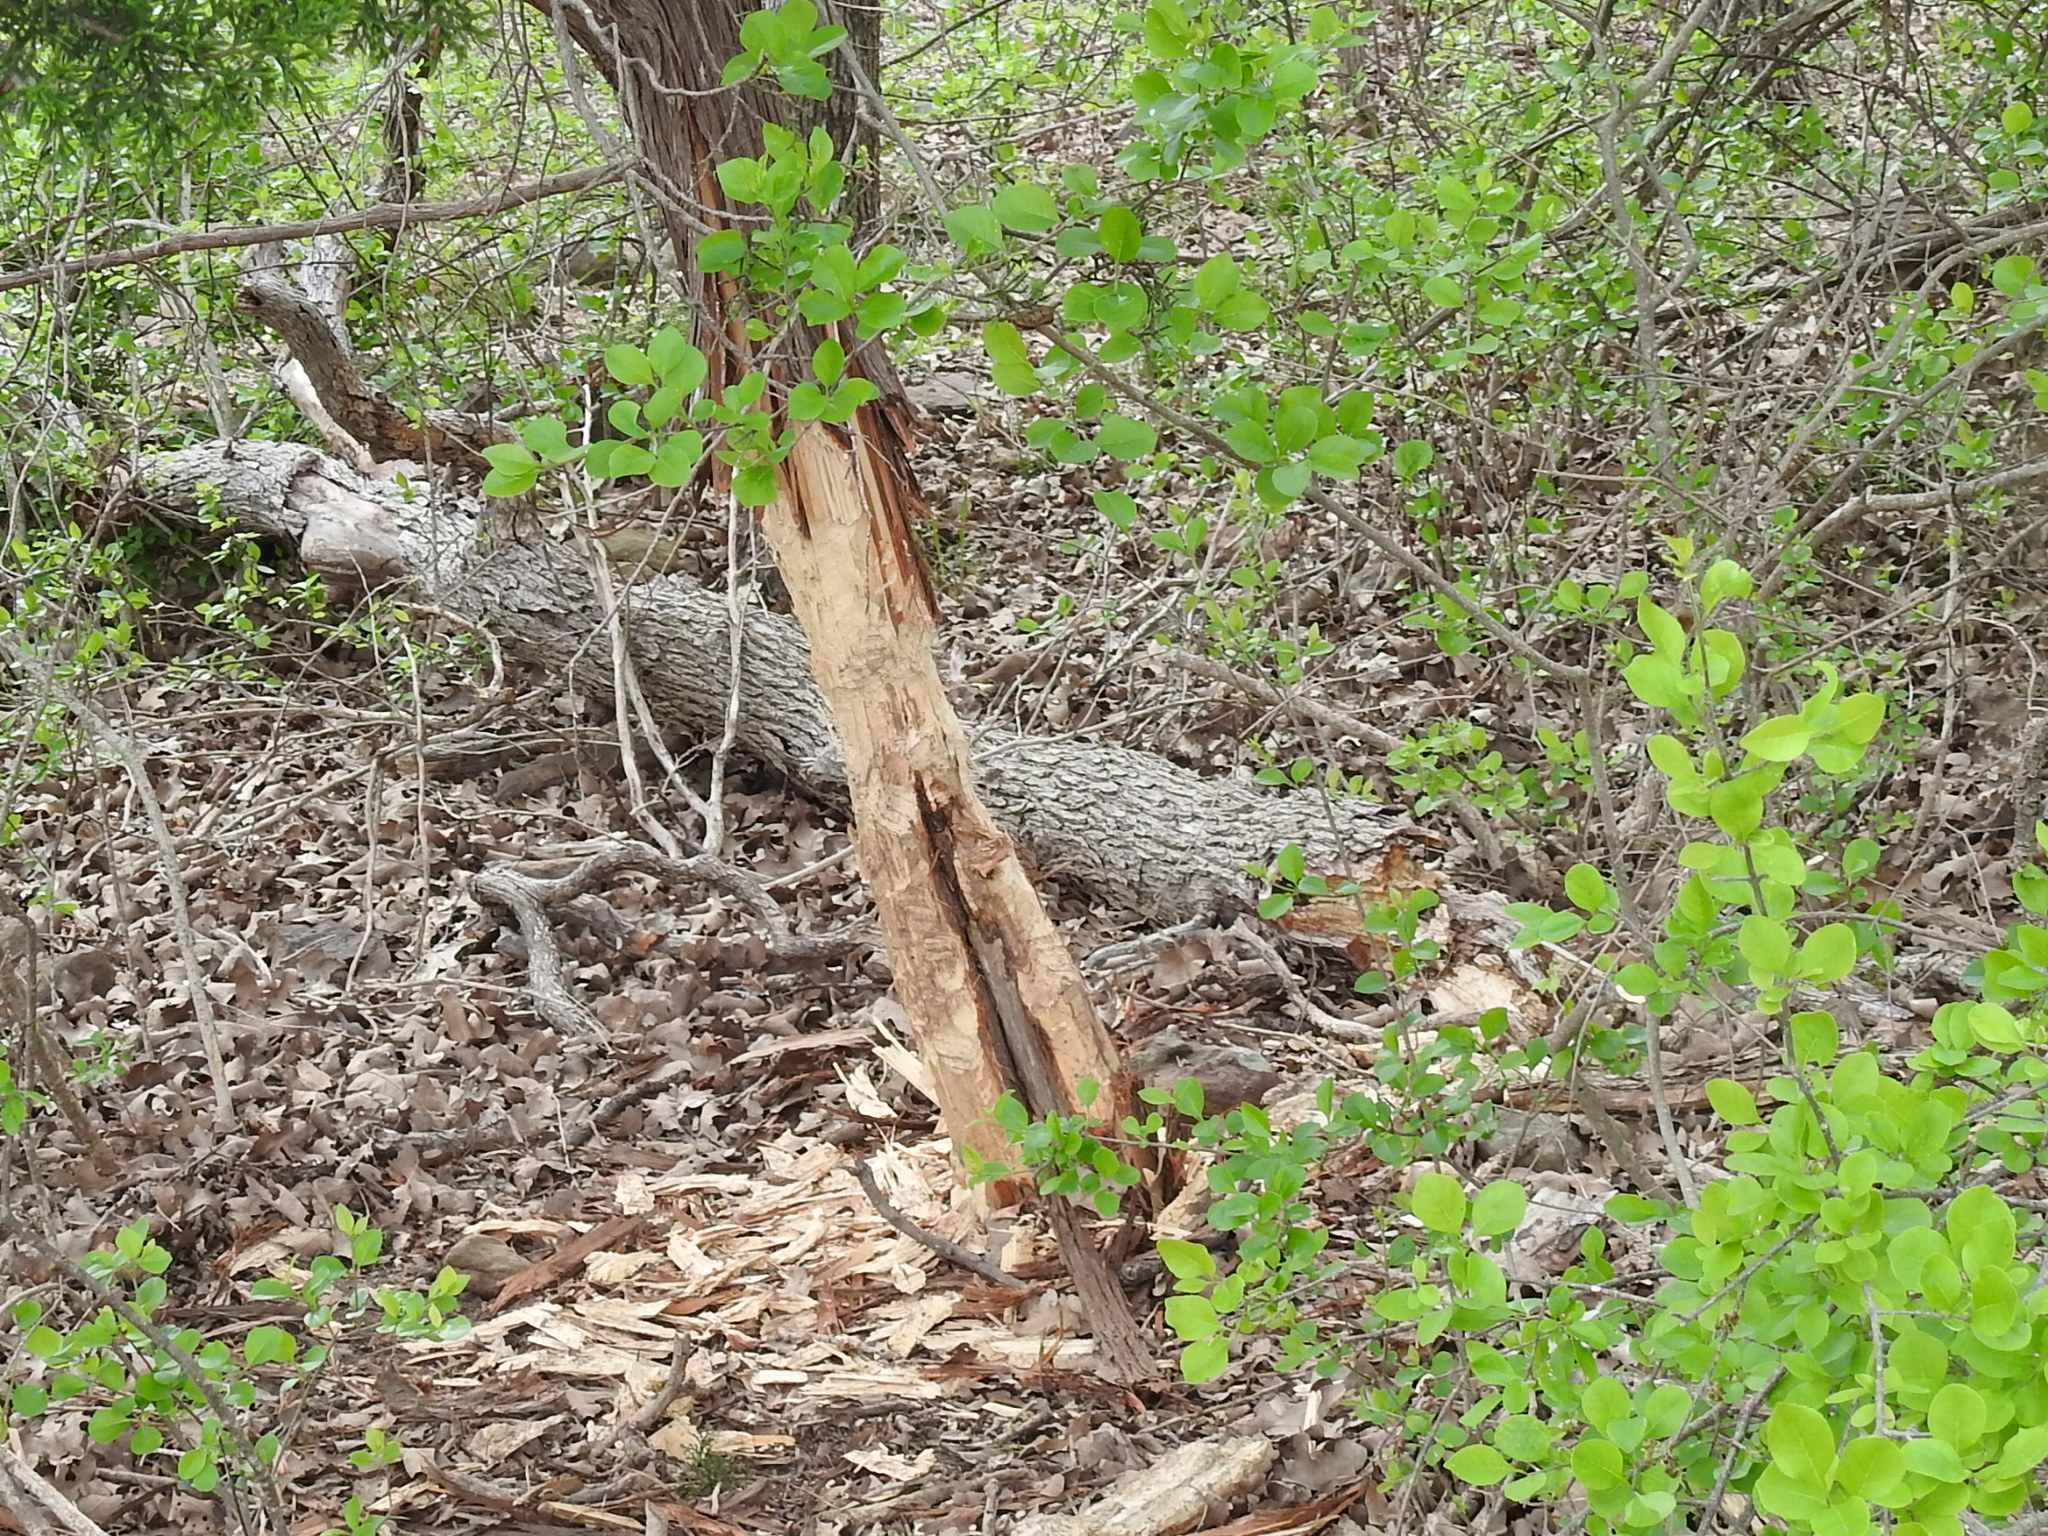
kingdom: Animalia
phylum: Chordata
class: Mammalia
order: Rodentia
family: Castoridae
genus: Castor
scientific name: Castor canadensis
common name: American beaver
